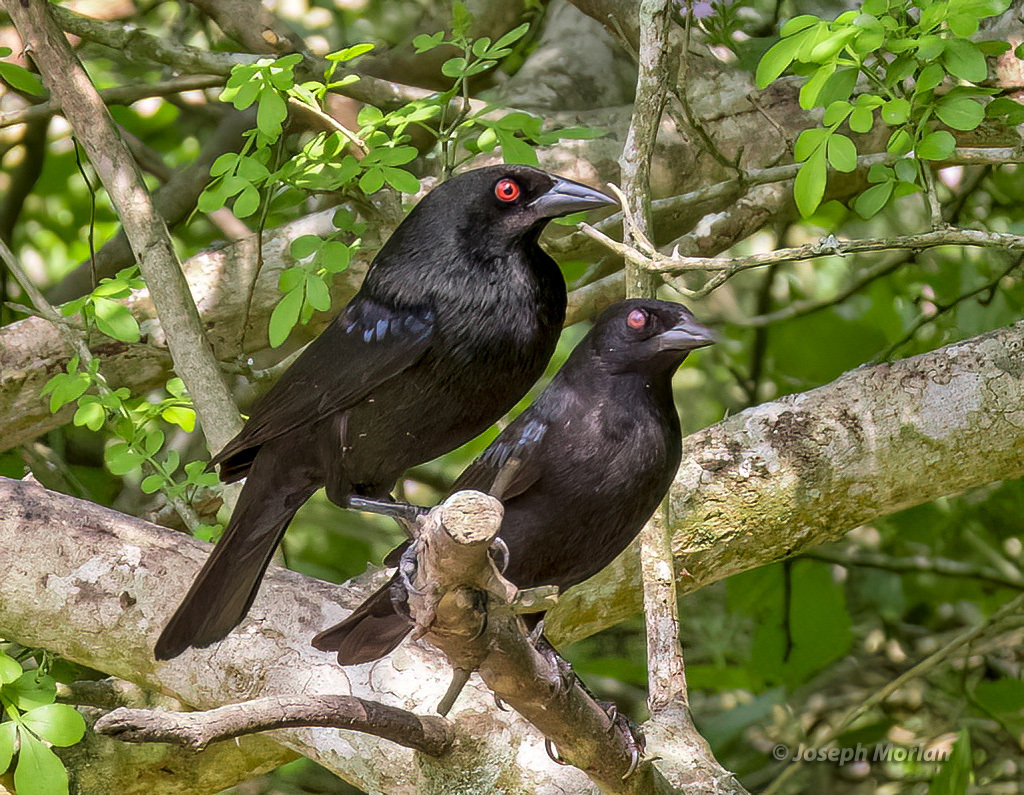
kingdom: Animalia
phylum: Chordata
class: Aves
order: Passeriformes
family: Icteridae
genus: Molothrus
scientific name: Molothrus aeneus
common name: Bronzed cowbird
